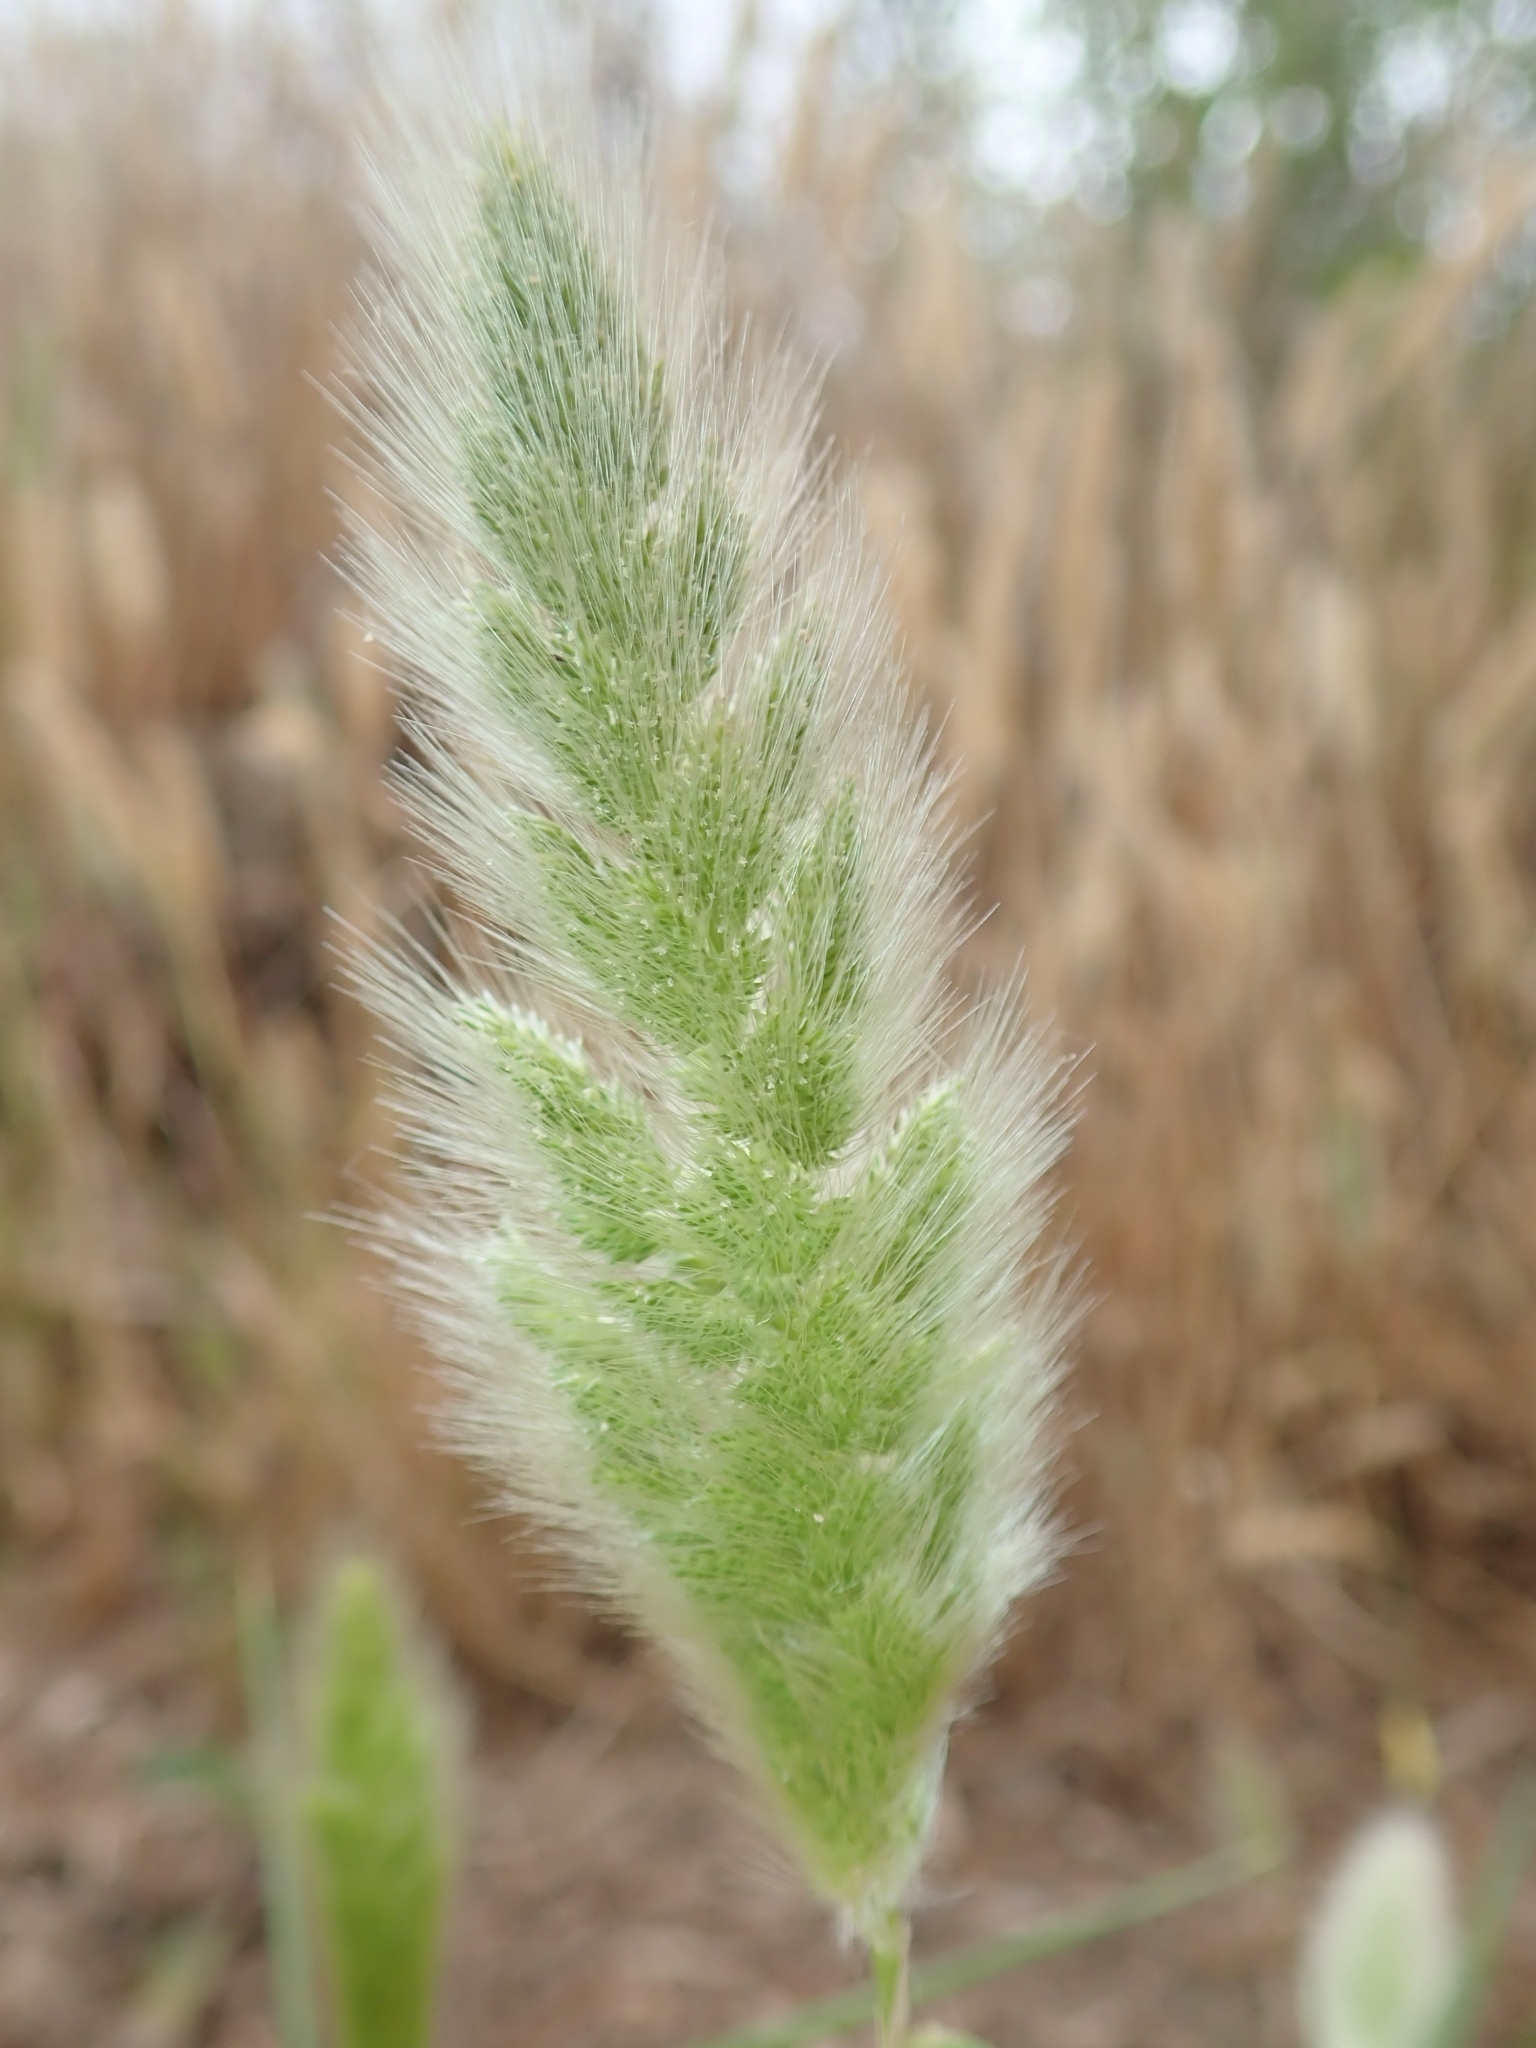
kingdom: Plantae
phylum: Tracheophyta
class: Liliopsida
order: Poales
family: Poaceae
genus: Polypogon
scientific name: Polypogon monspeliensis
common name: Annual rabbitsfoot grass
